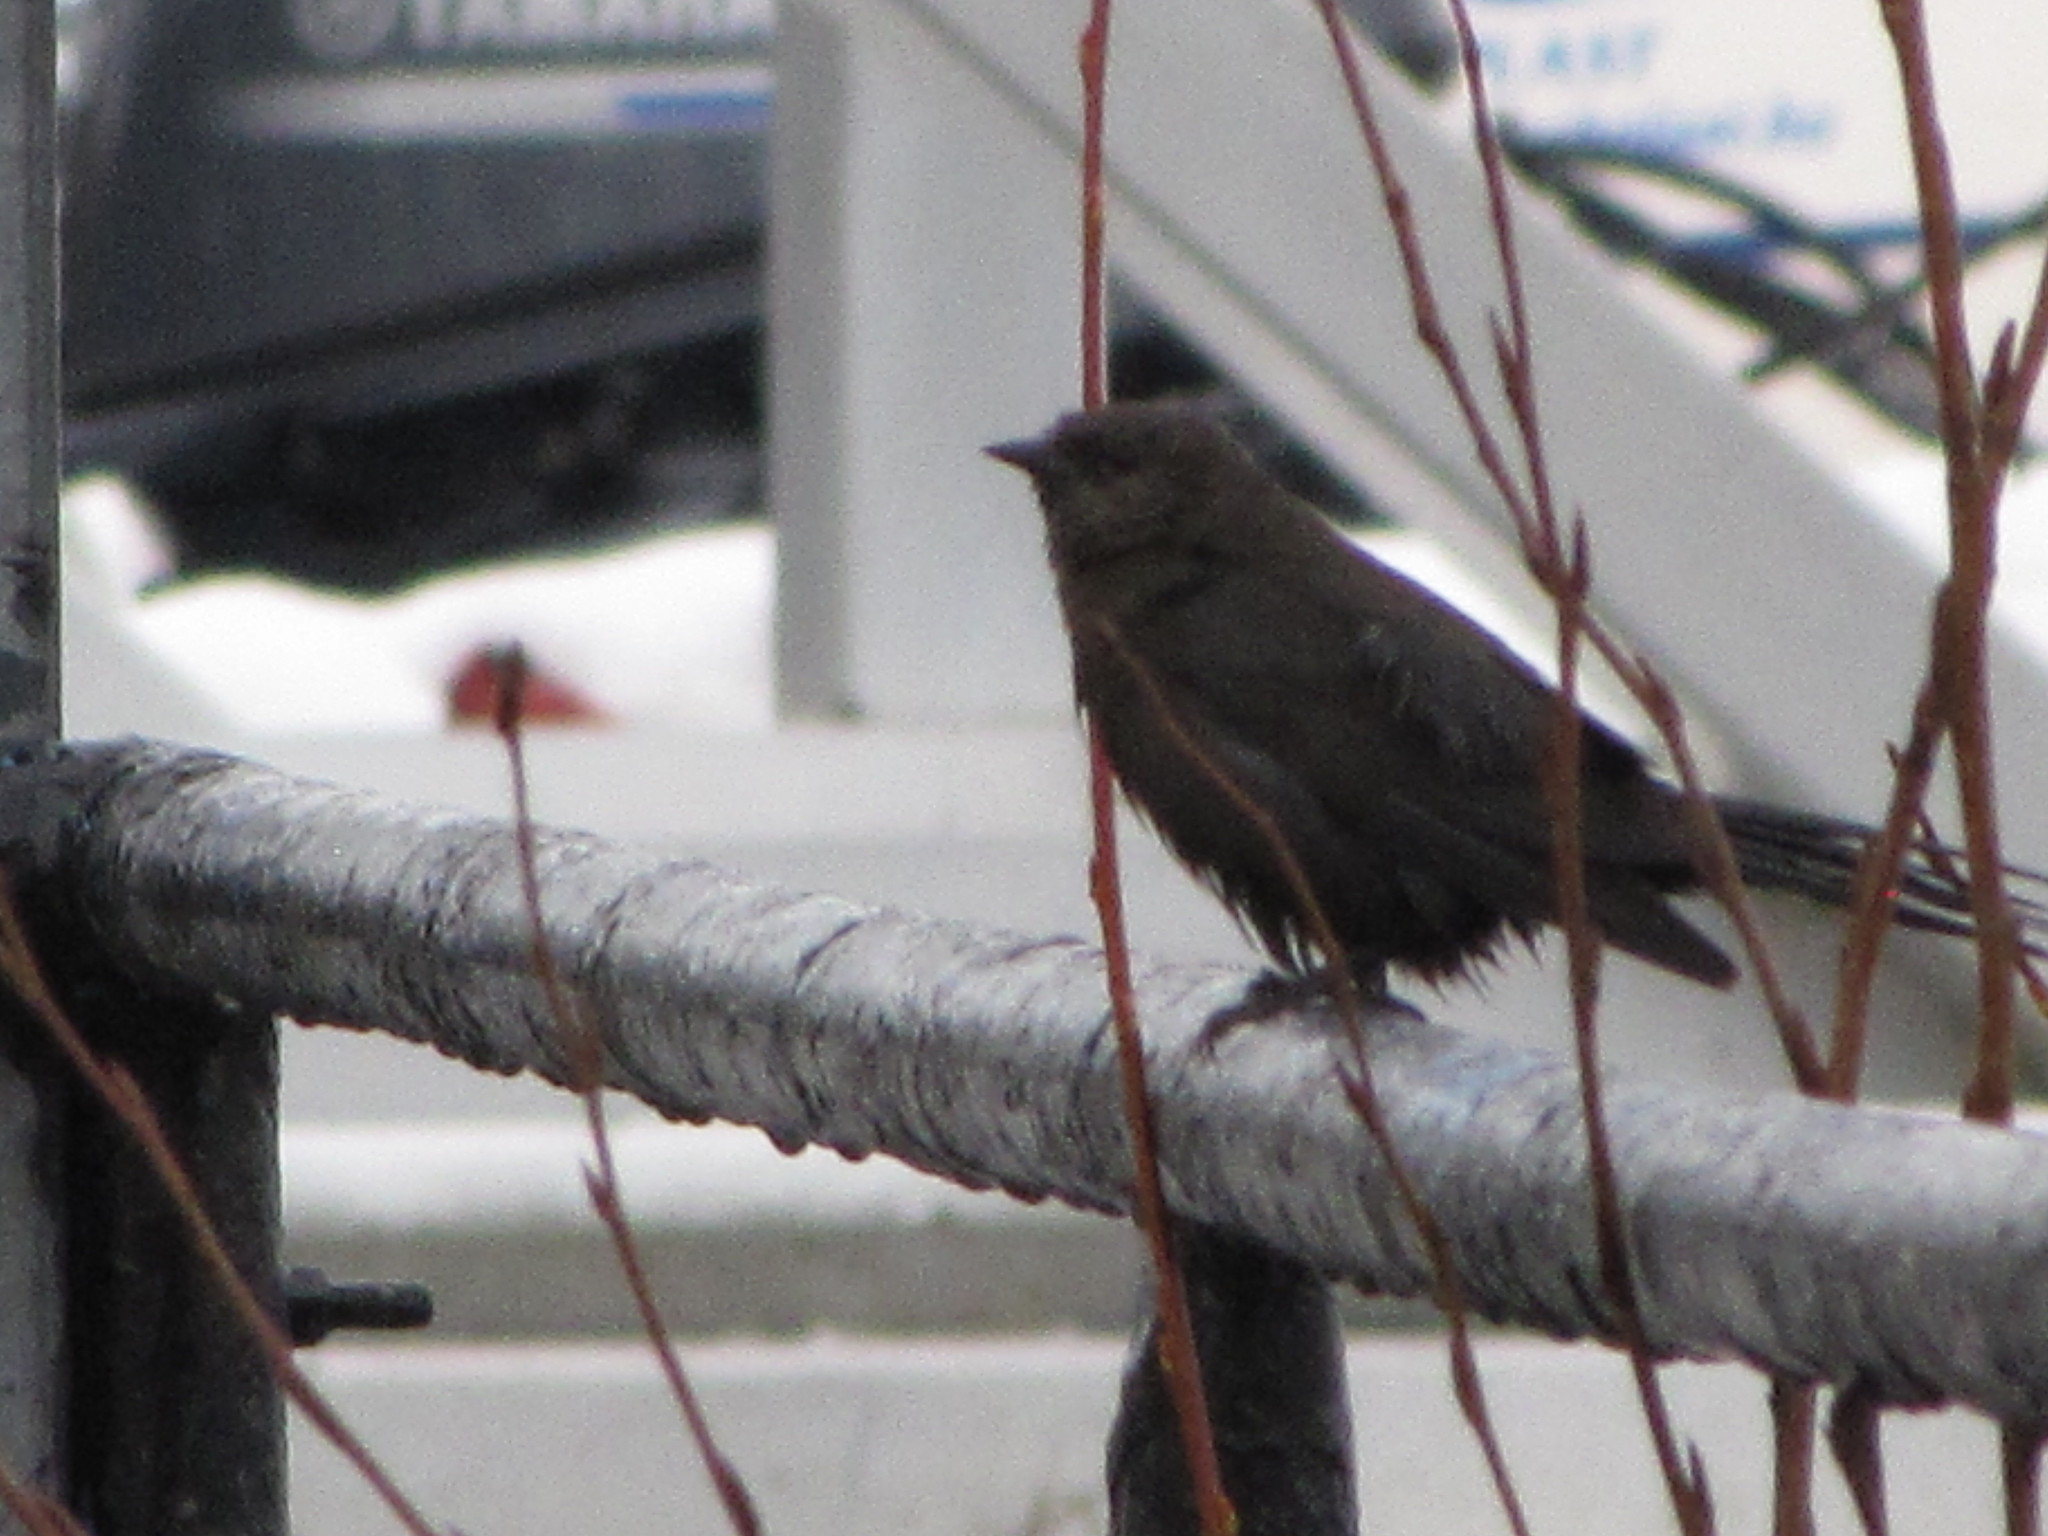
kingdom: Animalia
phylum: Chordata
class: Aves
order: Passeriformes
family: Icteridae
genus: Euphagus
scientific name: Euphagus cyanocephalus
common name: Brewer's blackbird
